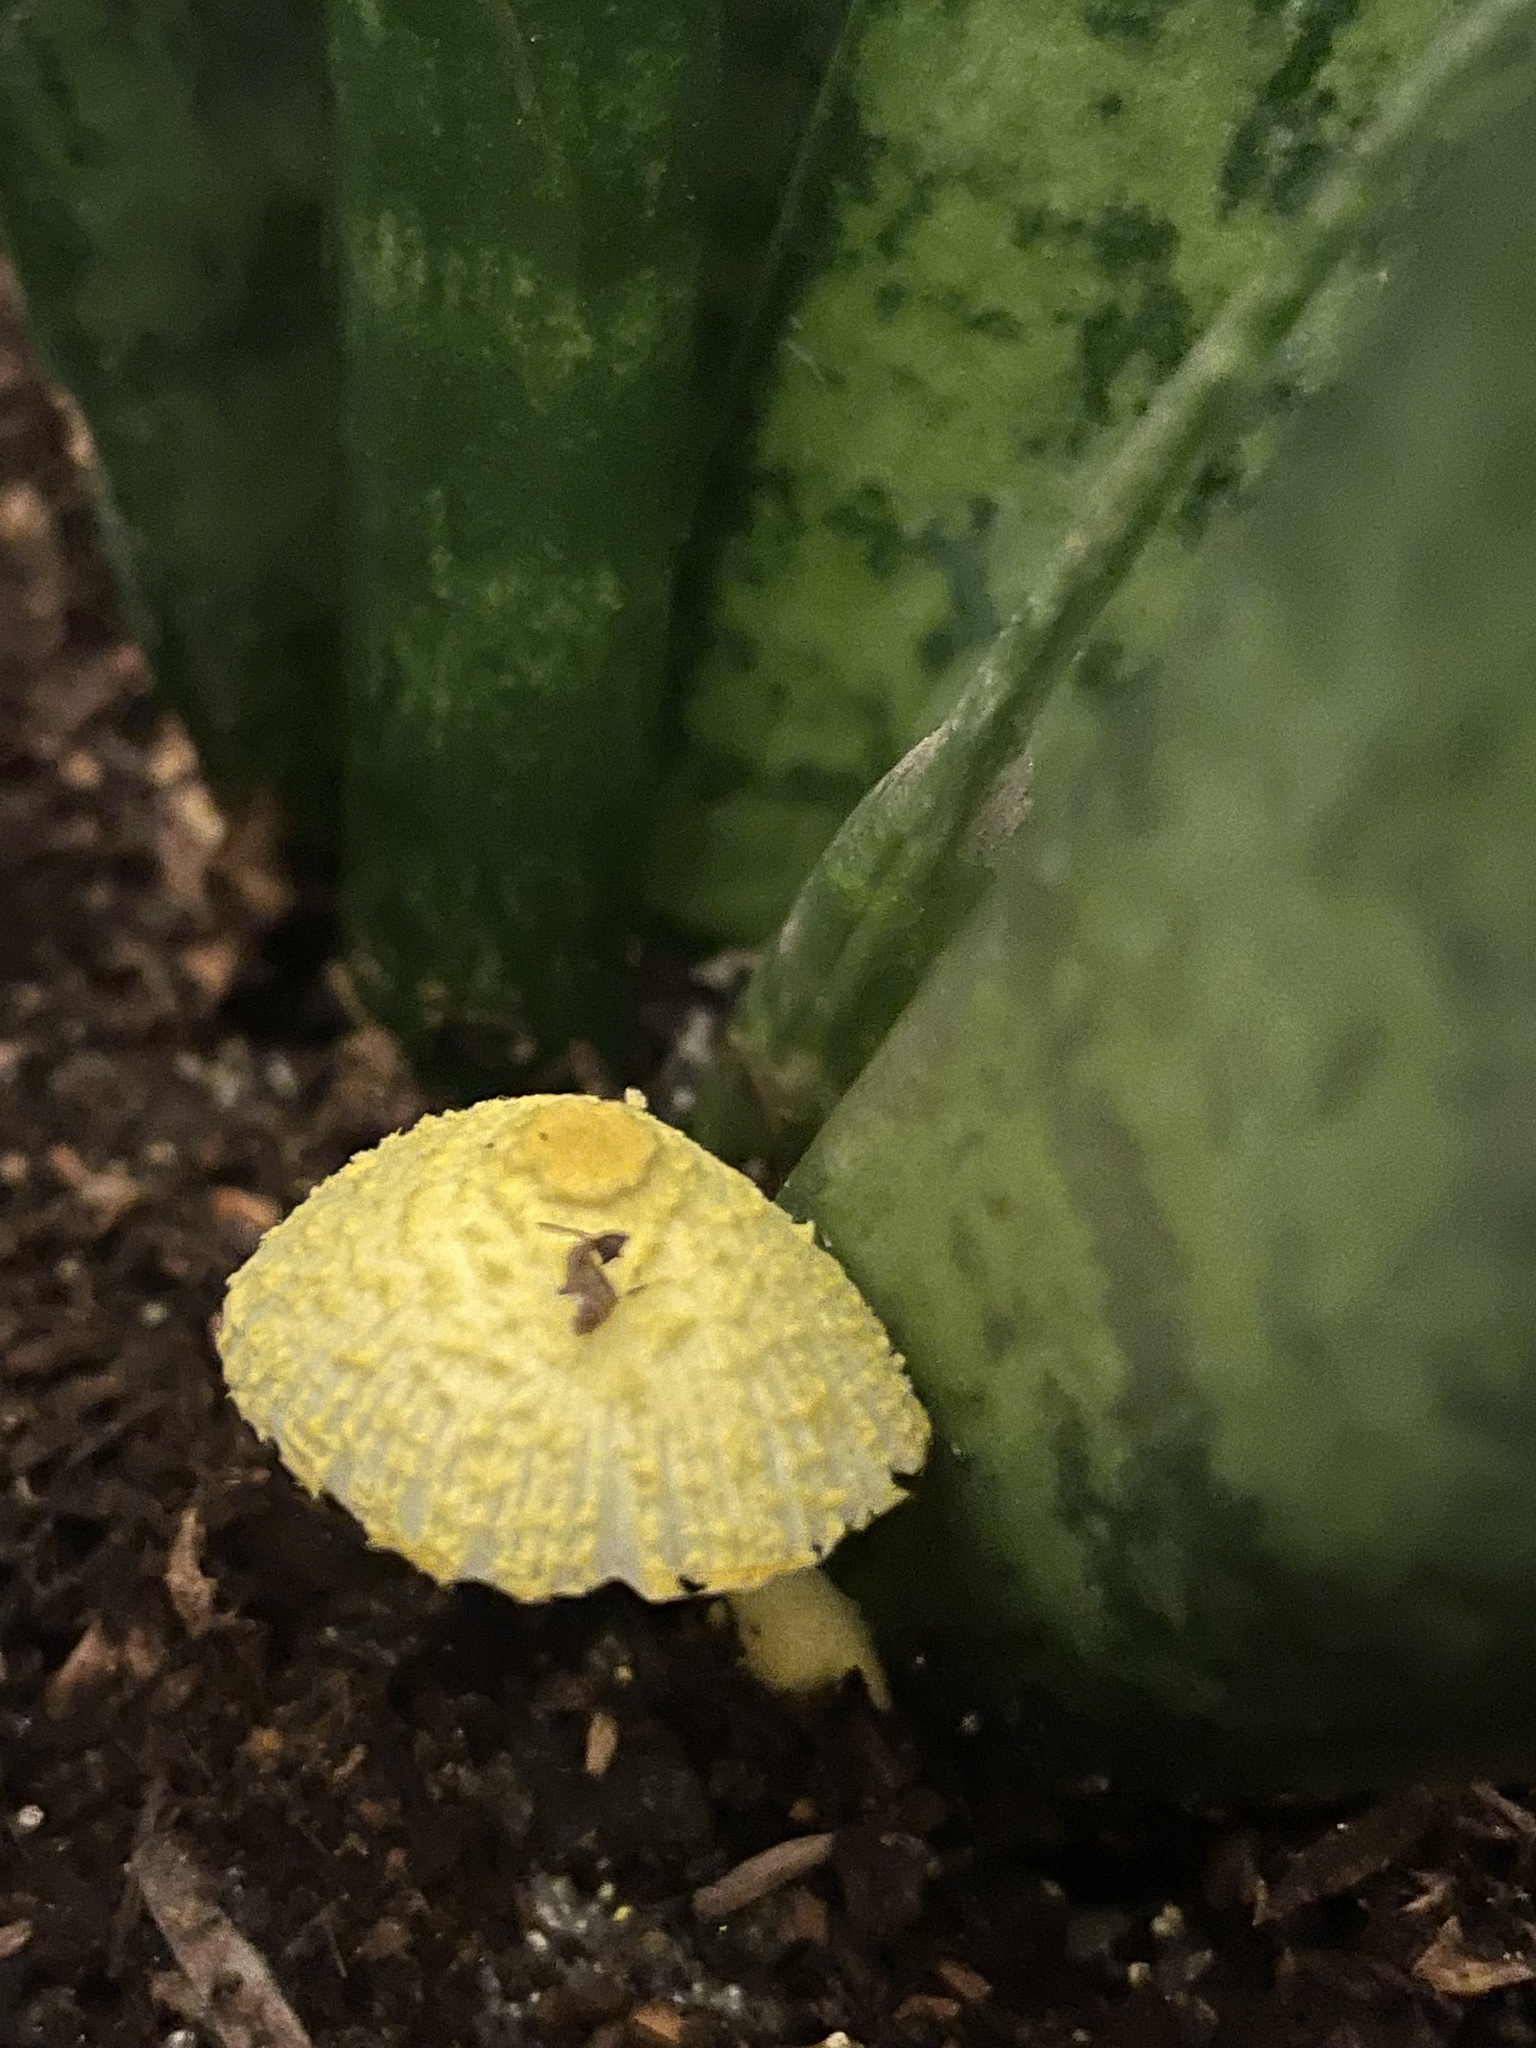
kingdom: Fungi
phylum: Basidiomycota
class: Agaricomycetes
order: Agaricales
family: Agaricaceae
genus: Leucocoprinus
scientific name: Leucocoprinus birnbaumii
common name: Plantpot dapperling
